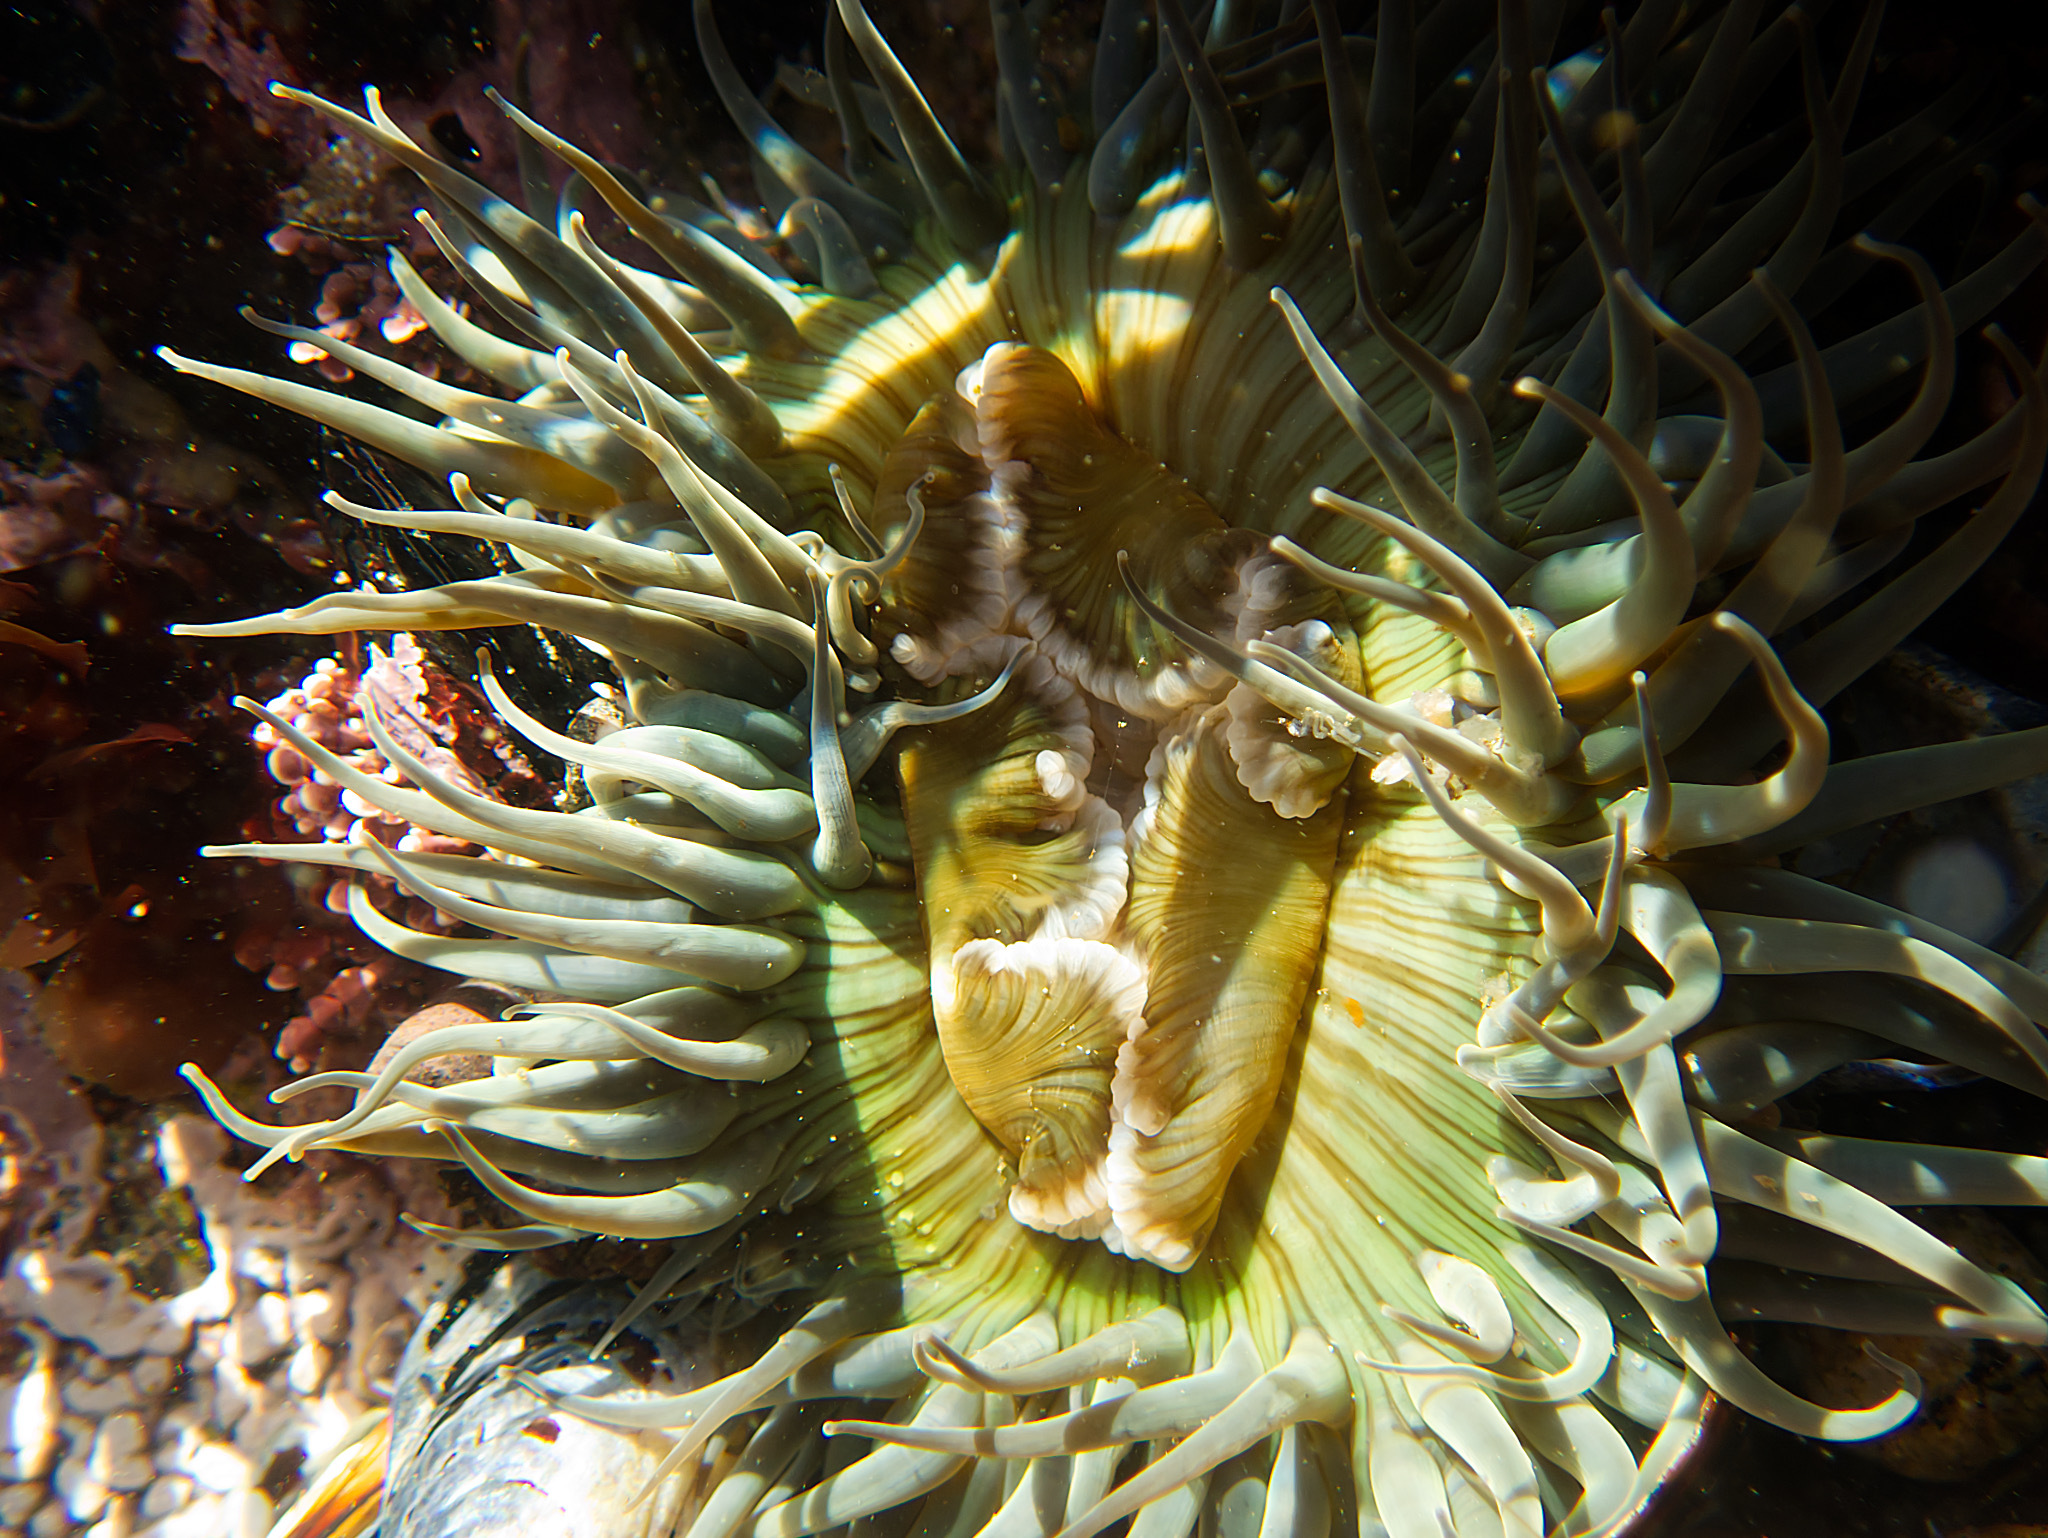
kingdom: Animalia
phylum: Cnidaria
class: Anthozoa
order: Actiniaria
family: Actiniidae
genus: Anthopleura
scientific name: Anthopleura sola
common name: Sun anemone
